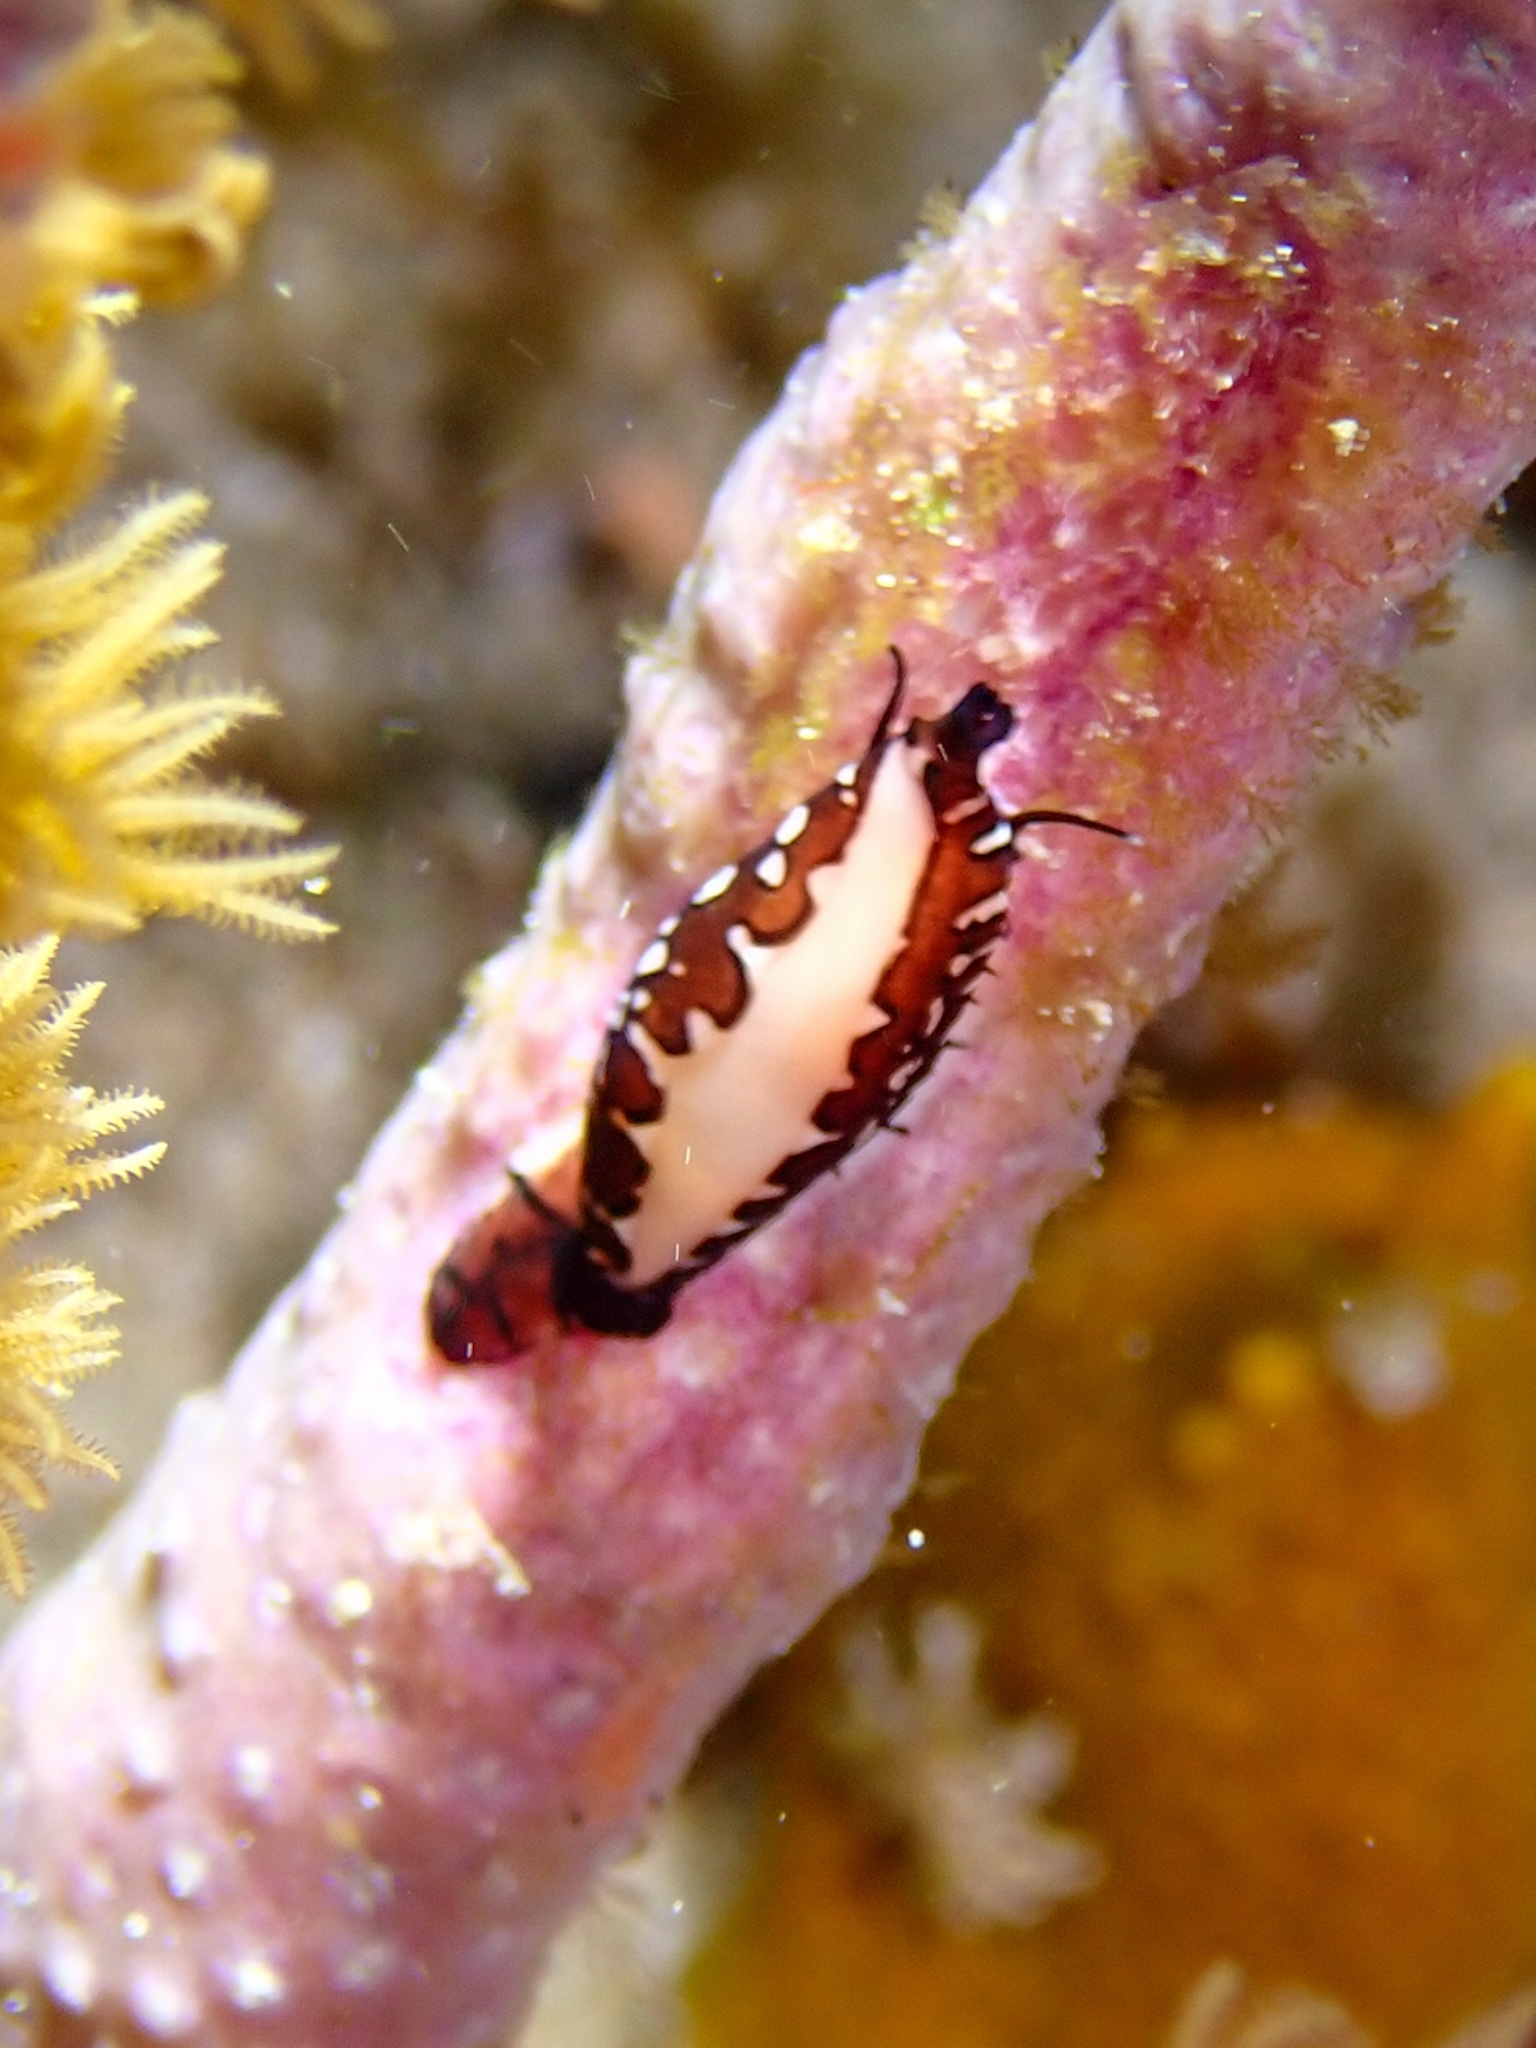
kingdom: Animalia
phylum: Mollusca
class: Gastropoda
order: Littorinimorpha
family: Ovulidae
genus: Cyphoma
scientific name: Cyphoma cassidyae
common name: Black morph cyphoma
